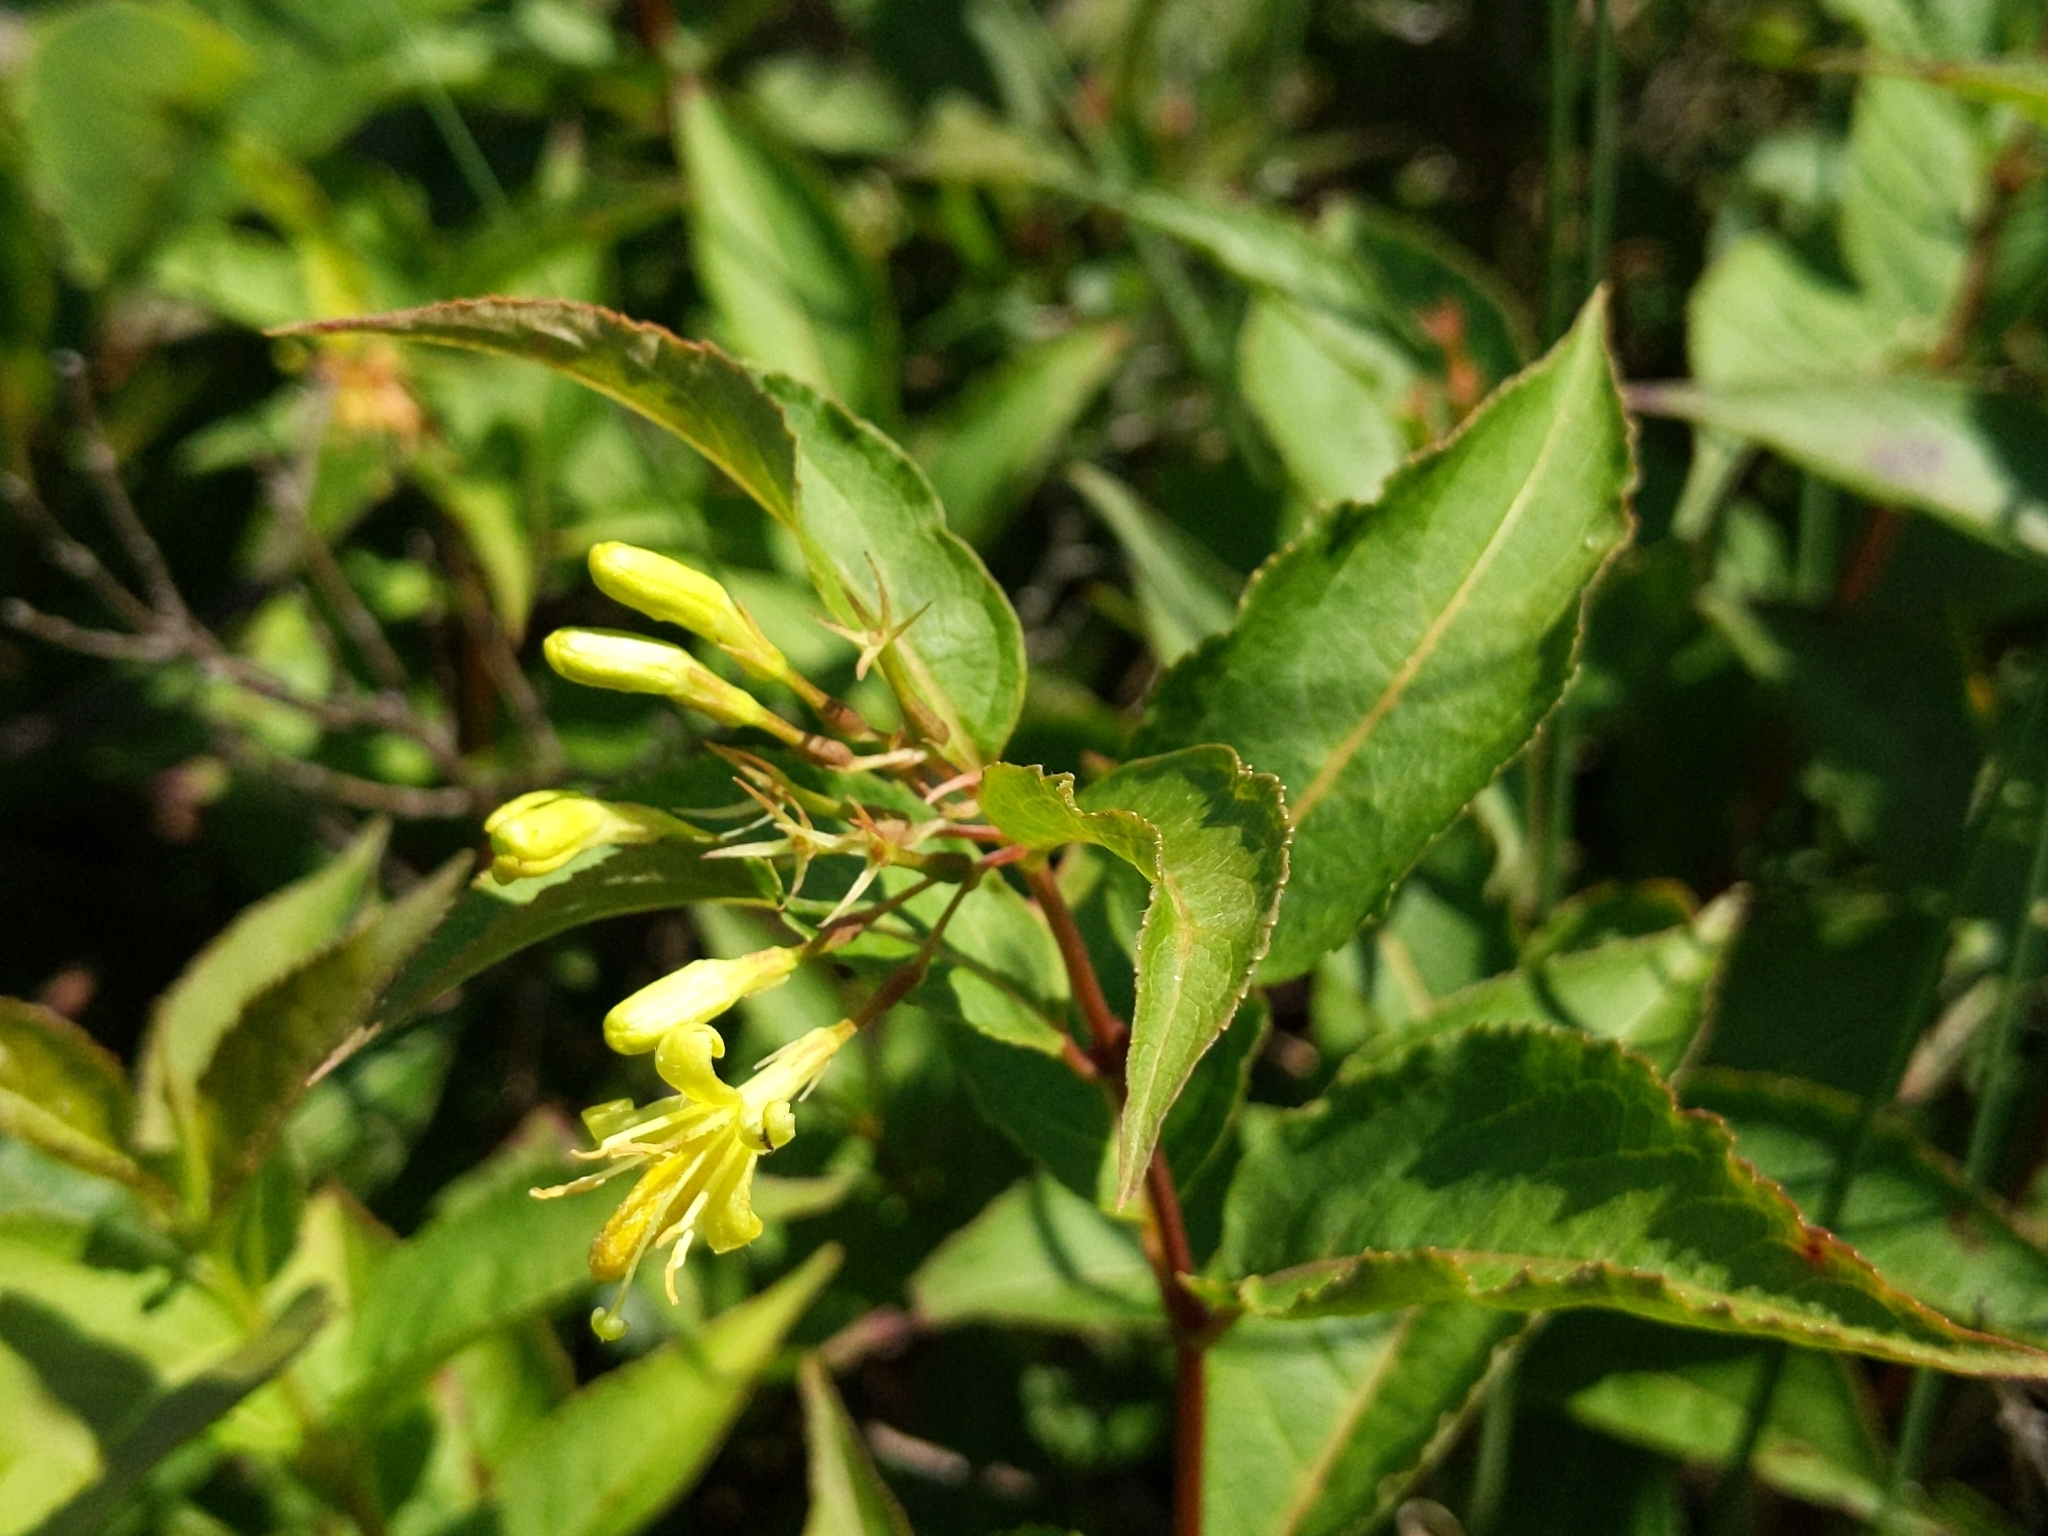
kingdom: Plantae
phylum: Tracheophyta
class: Magnoliopsida
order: Dipsacales
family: Caprifoliaceae
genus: Diervilla
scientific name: Diervilla lonicera
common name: Bush-honeysuckle
